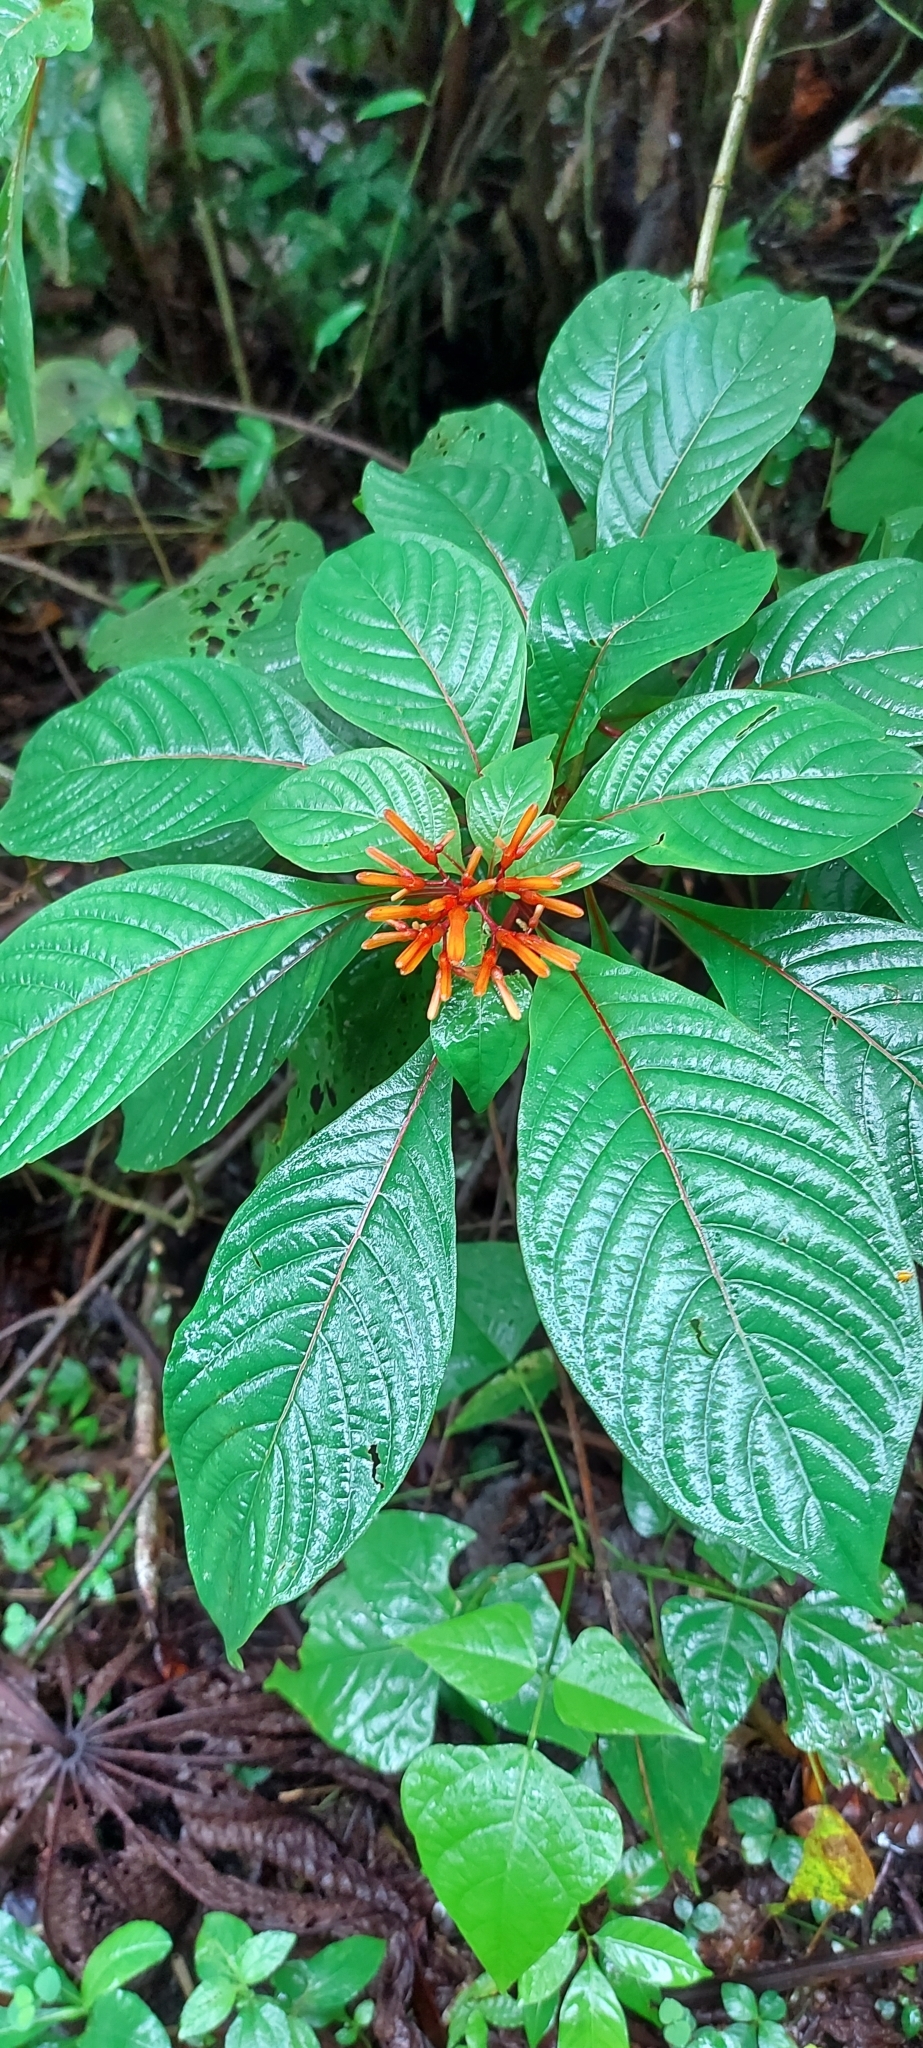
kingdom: Plantae
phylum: Tracheophyta
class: Magnoliopsida
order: Gentianales
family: Rubiaceae
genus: Hamelia
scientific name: Hamelia patens
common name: Redhead
